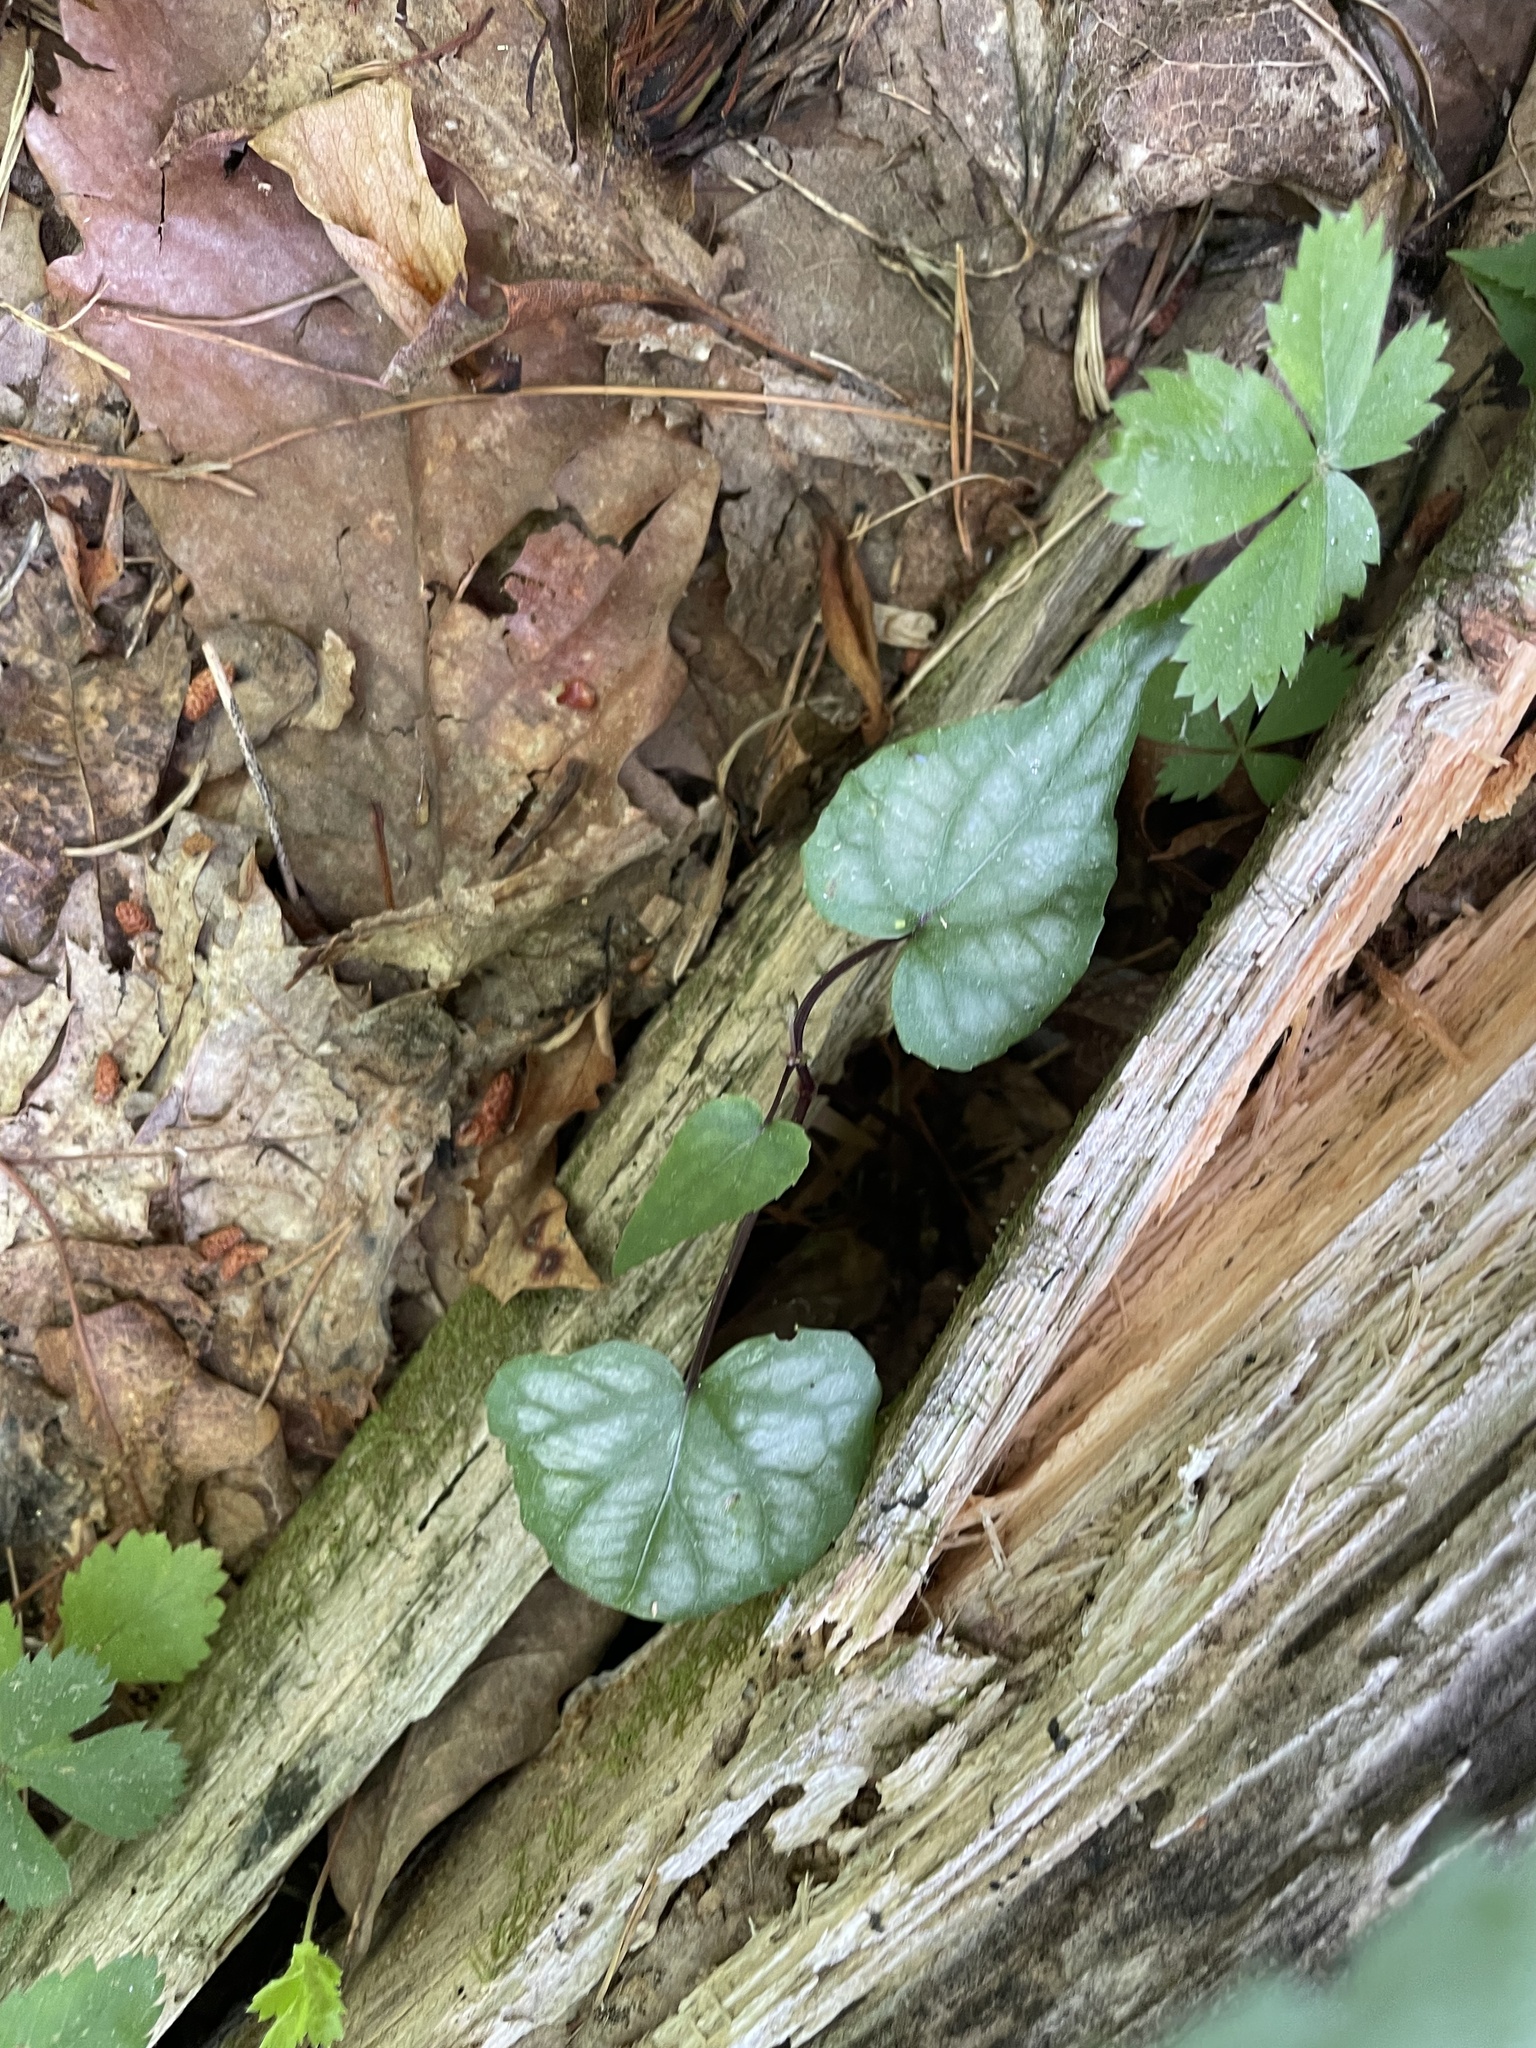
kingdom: Plantae
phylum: Tracheophyta
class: Magnoliopsida
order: Malpighiales
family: Violaceae
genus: Viola
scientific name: Viola hastata
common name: Spear-leaf violet
